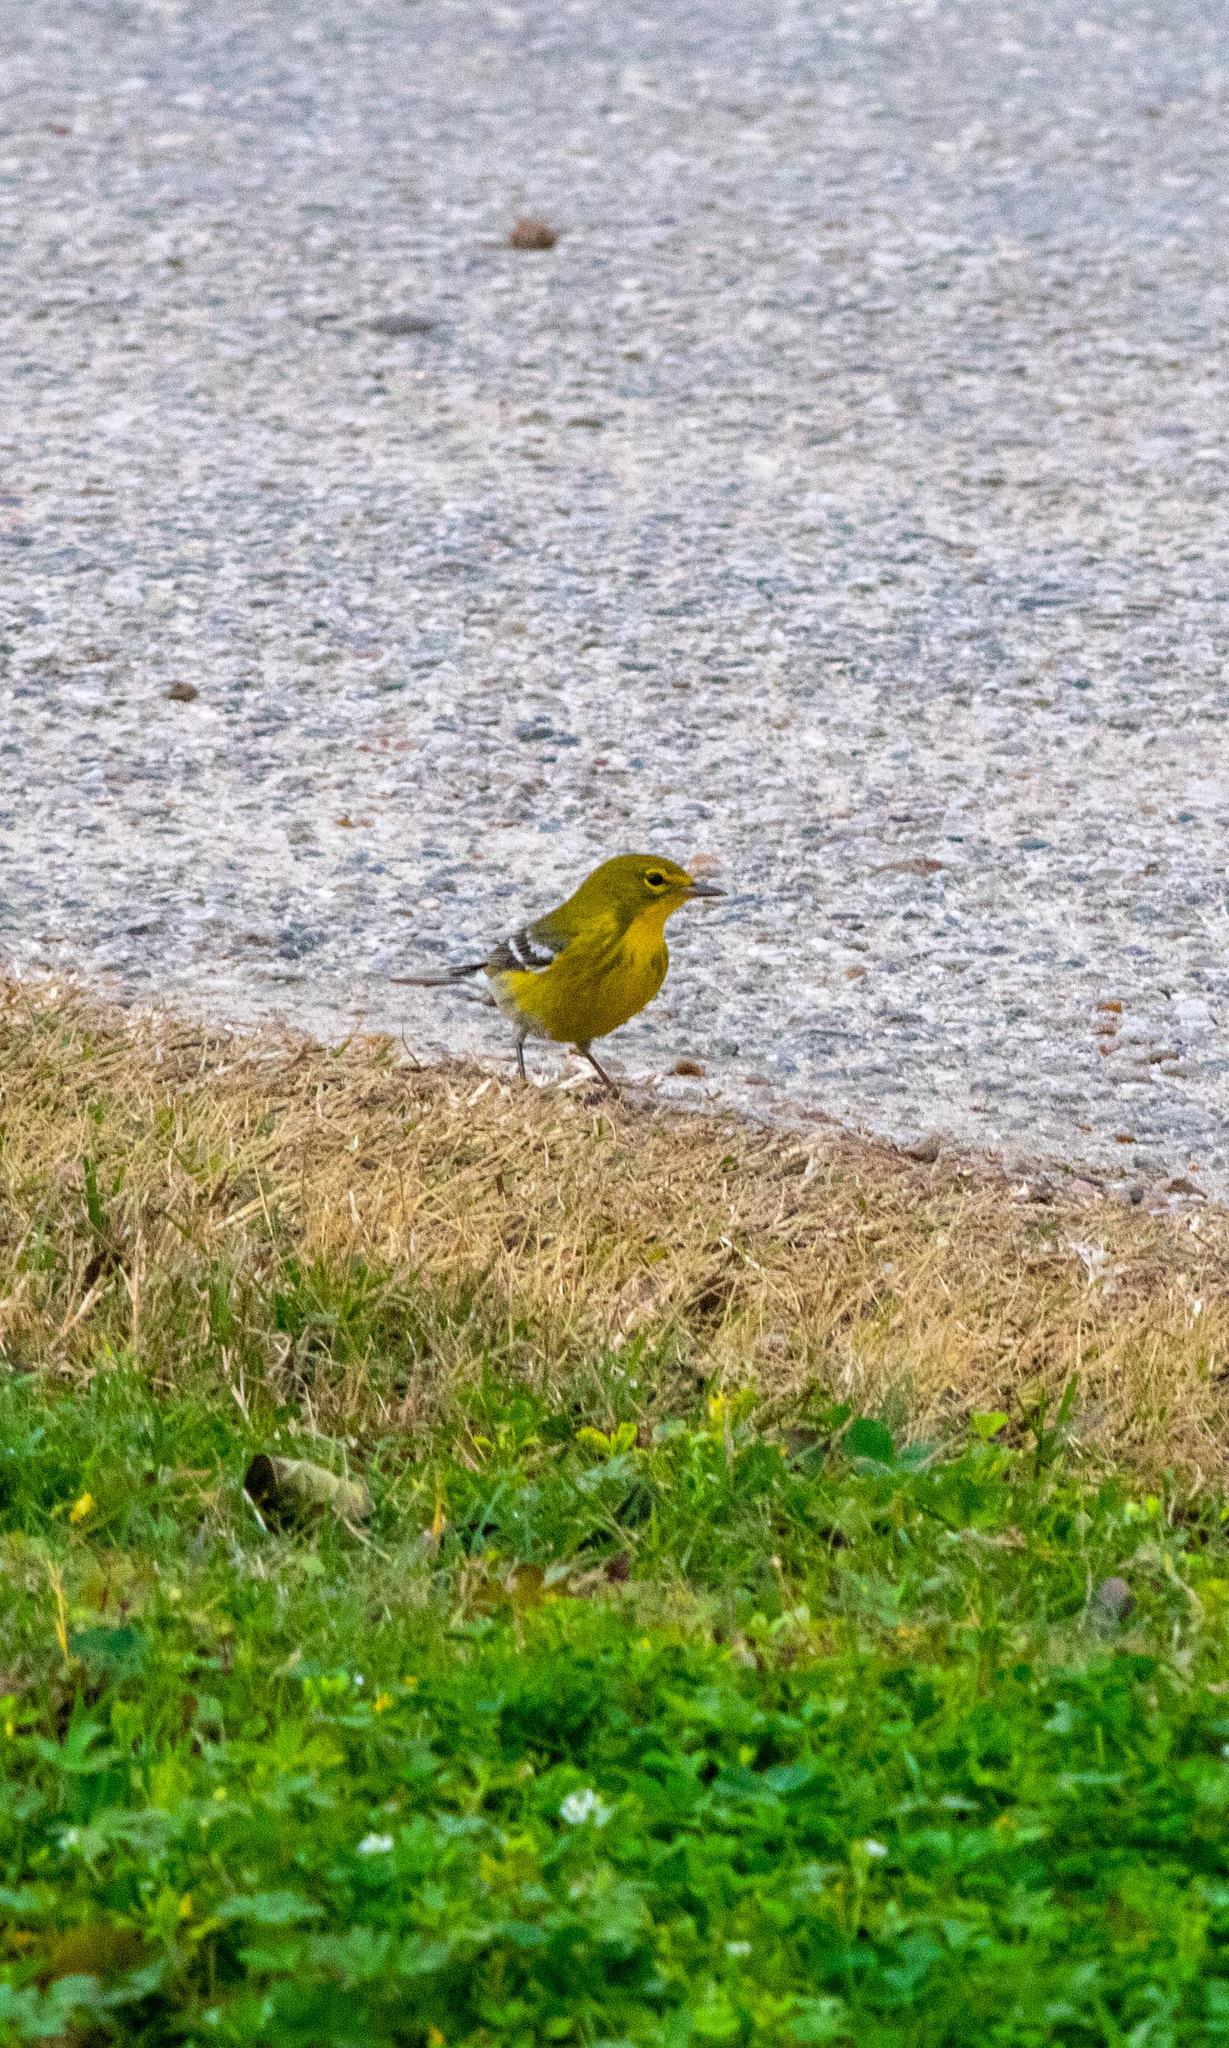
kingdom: Animalia
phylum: Chordata
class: Aves
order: Passeriformes
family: Parulidae
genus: Setophaga
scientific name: Setophaga pinus
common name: Pine warbler
